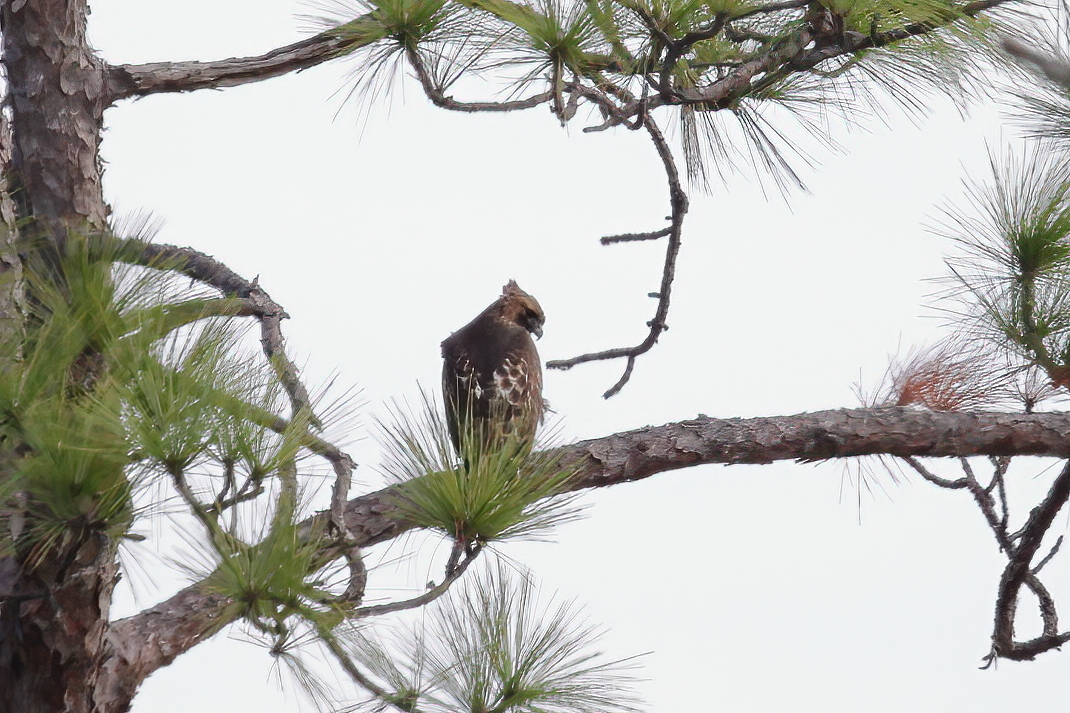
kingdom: Animalia
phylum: Chordata
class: Aves
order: Accipitriformes
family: Accipitridae
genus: Buteo
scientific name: Buteo jamaicensis
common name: Red-tailed hawk
